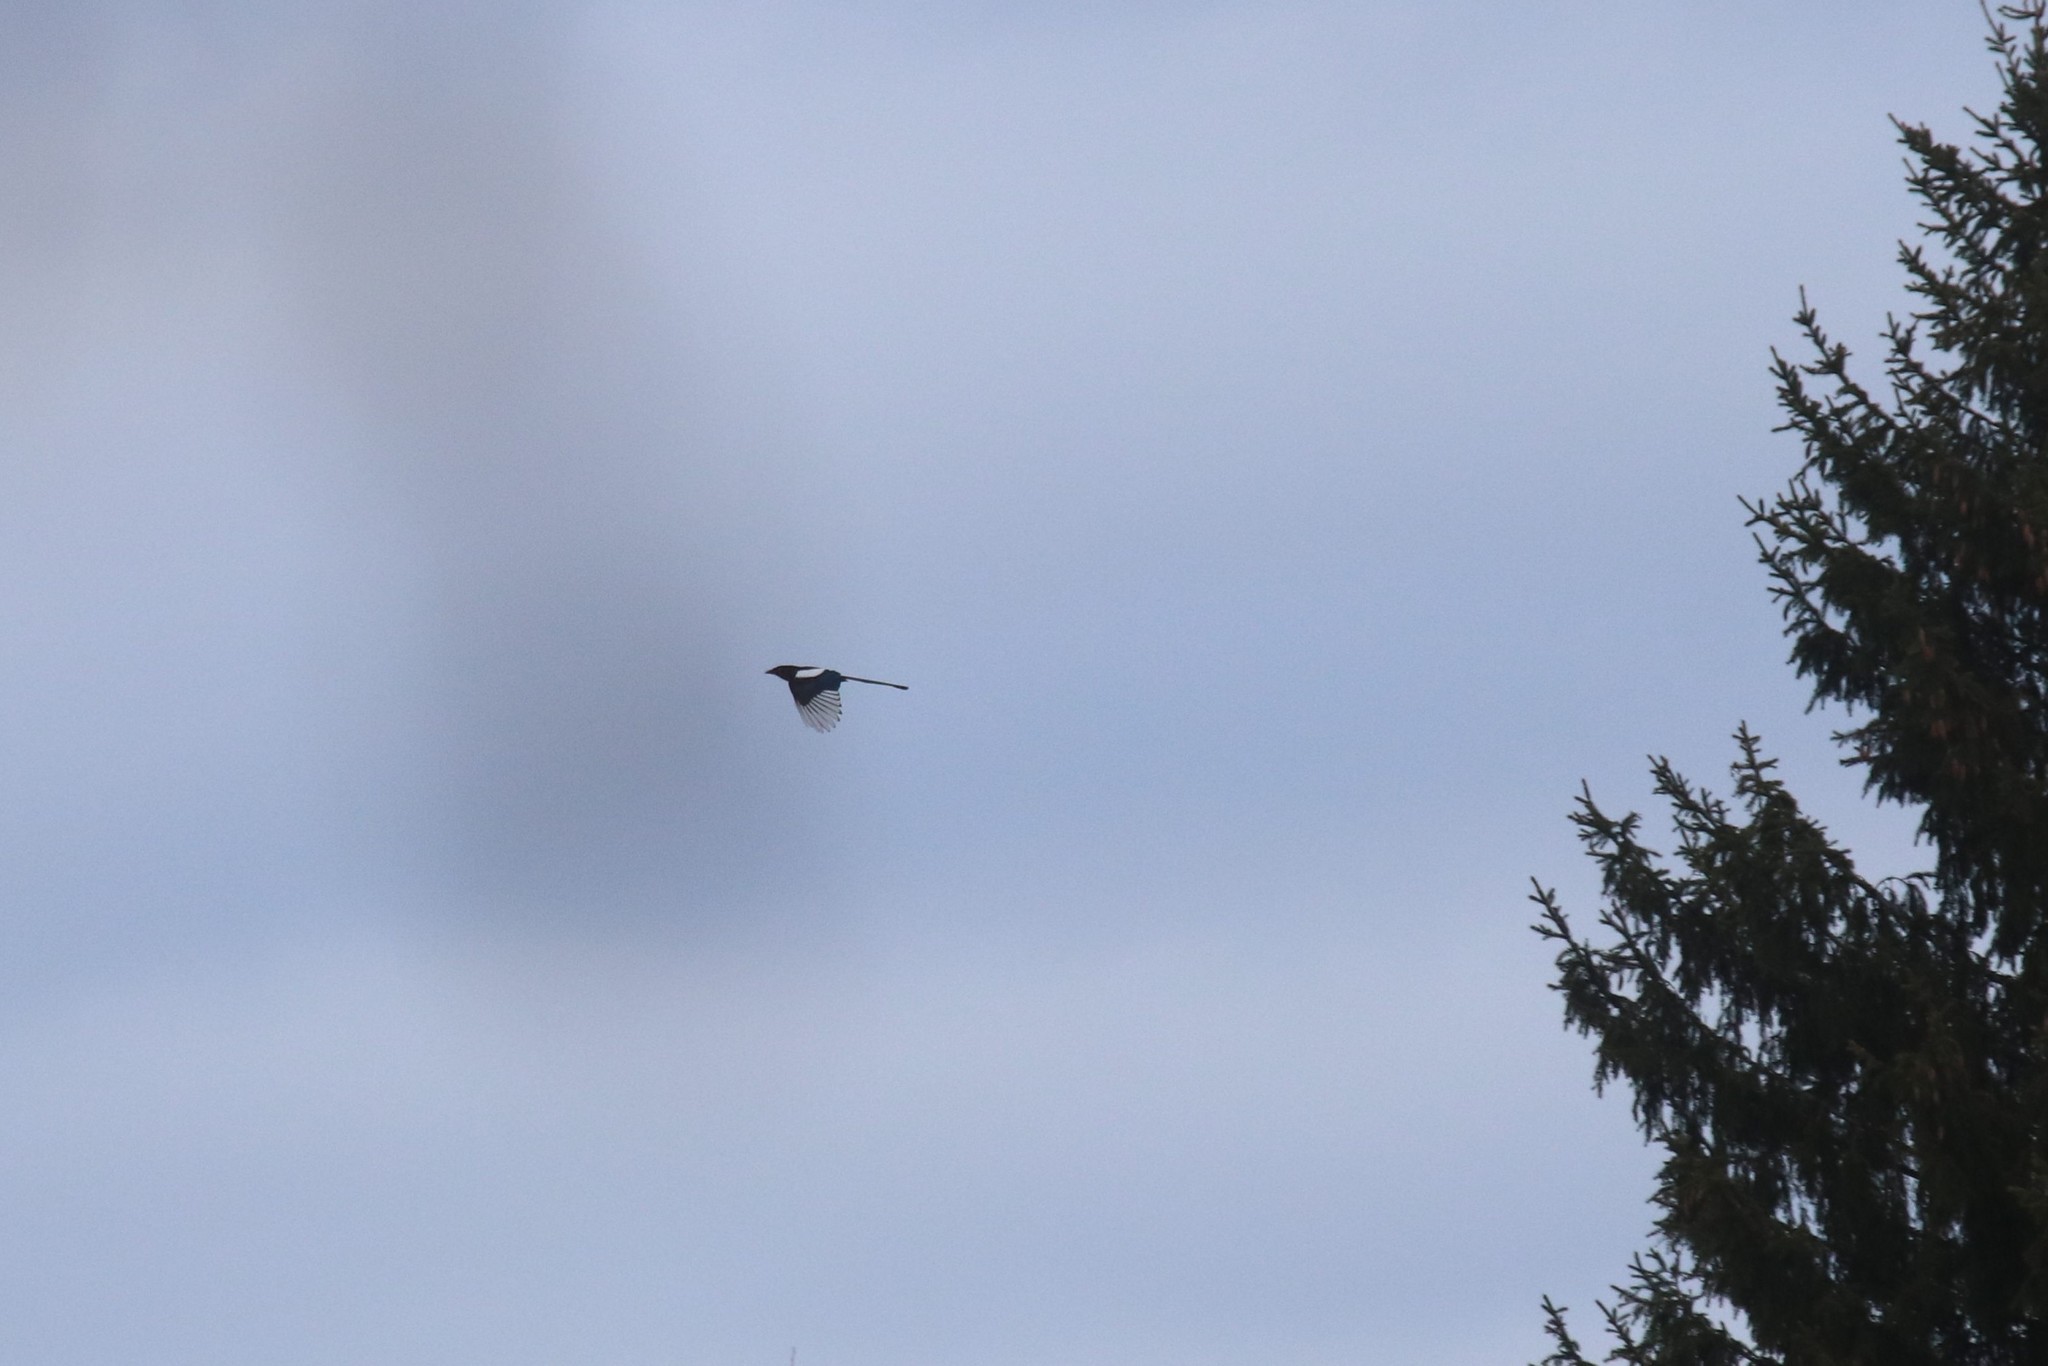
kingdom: Animalia
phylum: Chordata
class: Aves
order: Passeriformes
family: Corvidae
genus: Pica
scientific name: Pica pica
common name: Eurasian magpie
